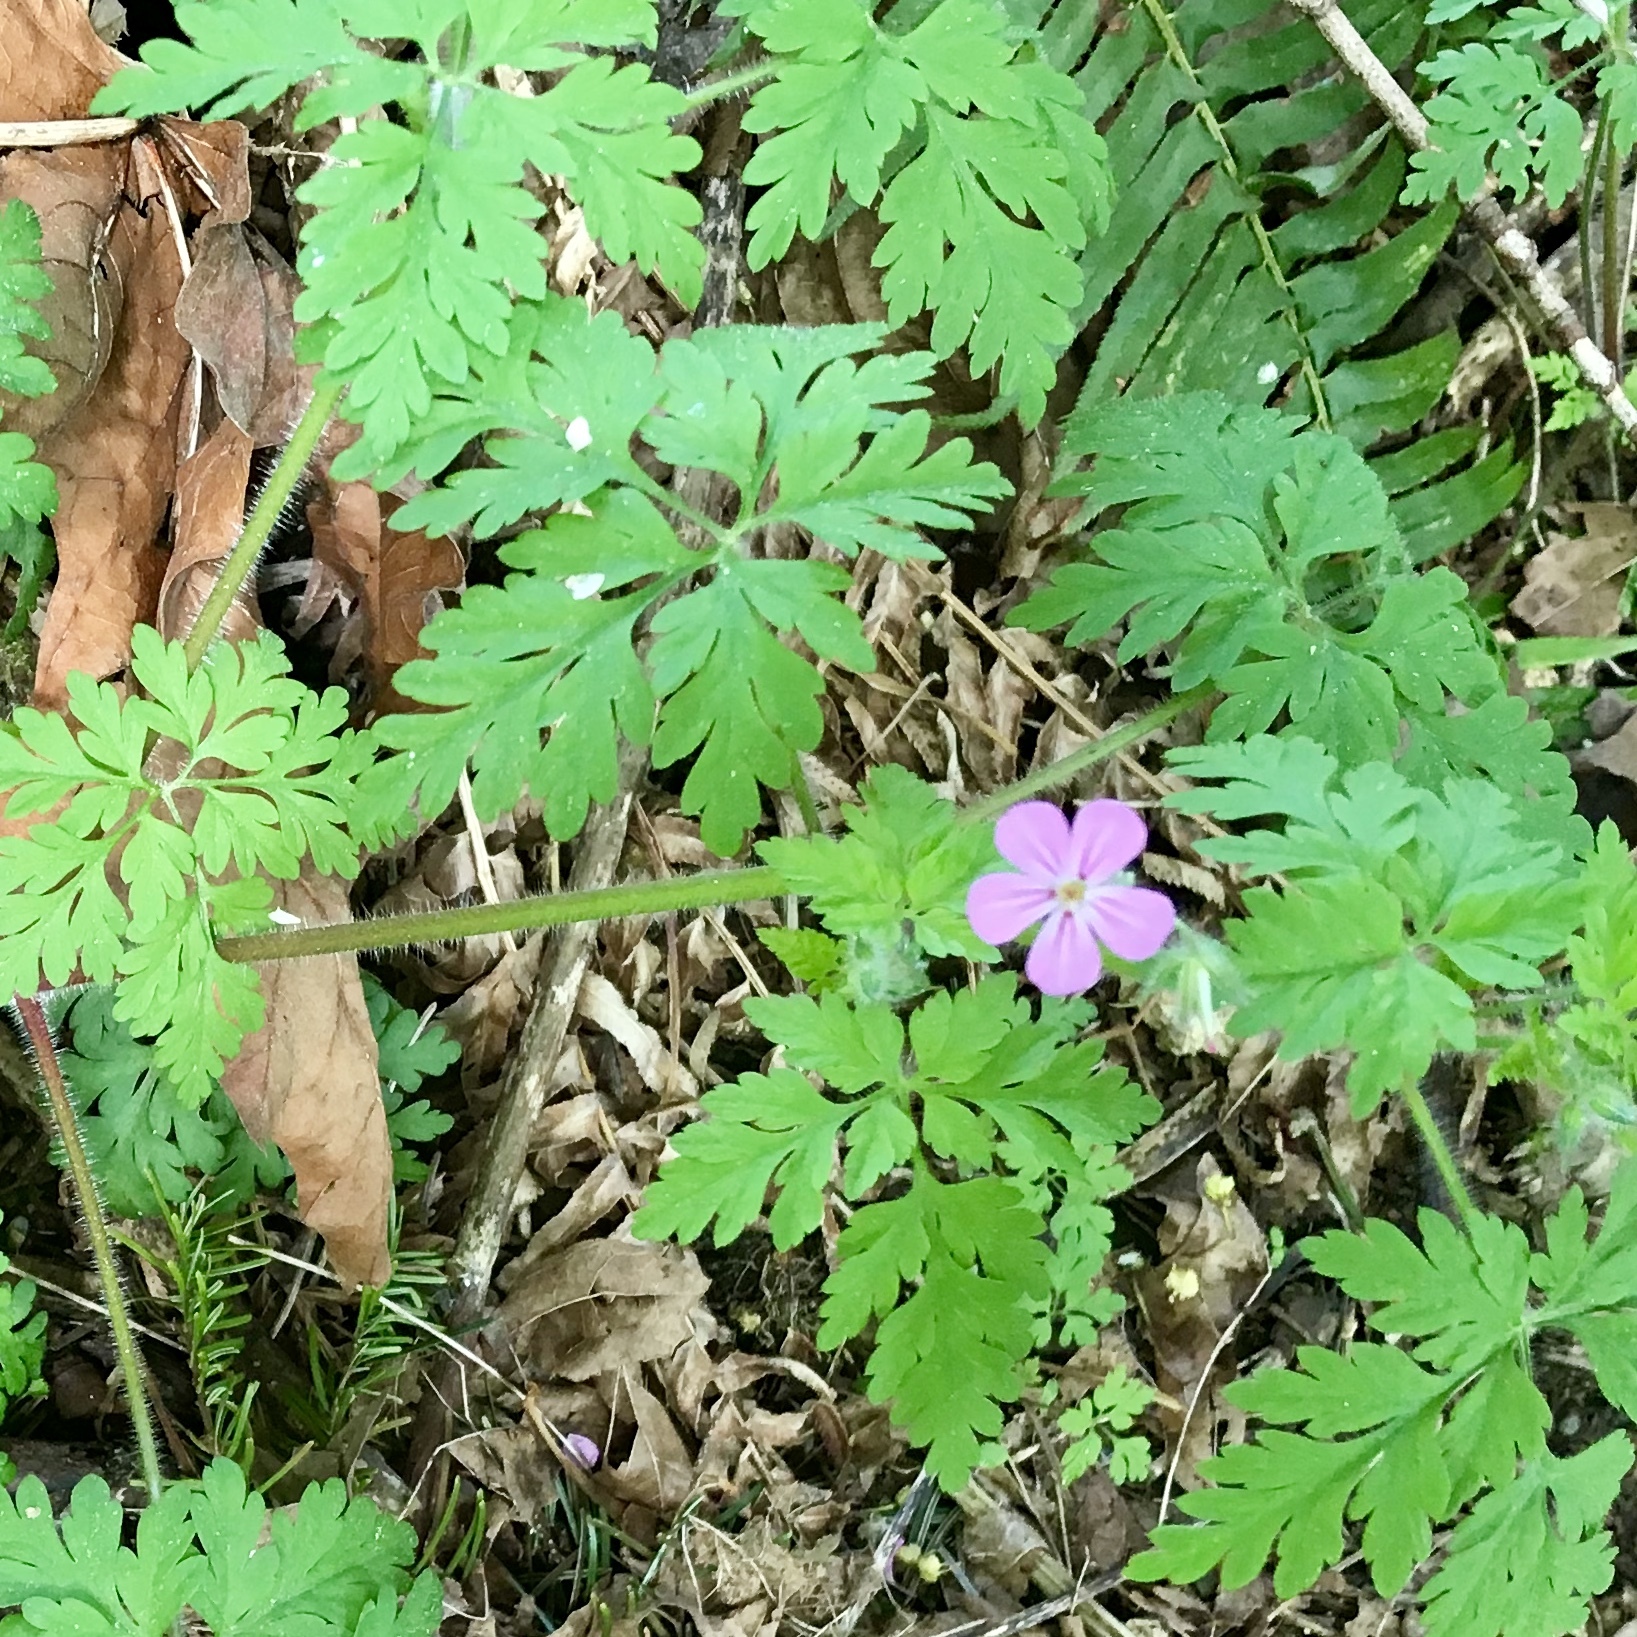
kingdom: Plantae
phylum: Tracheophyta
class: Magnoliopsida
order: Geraniales
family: Geraniaceae
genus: Geranium
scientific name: Geranium robertianum
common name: Herb-robert
